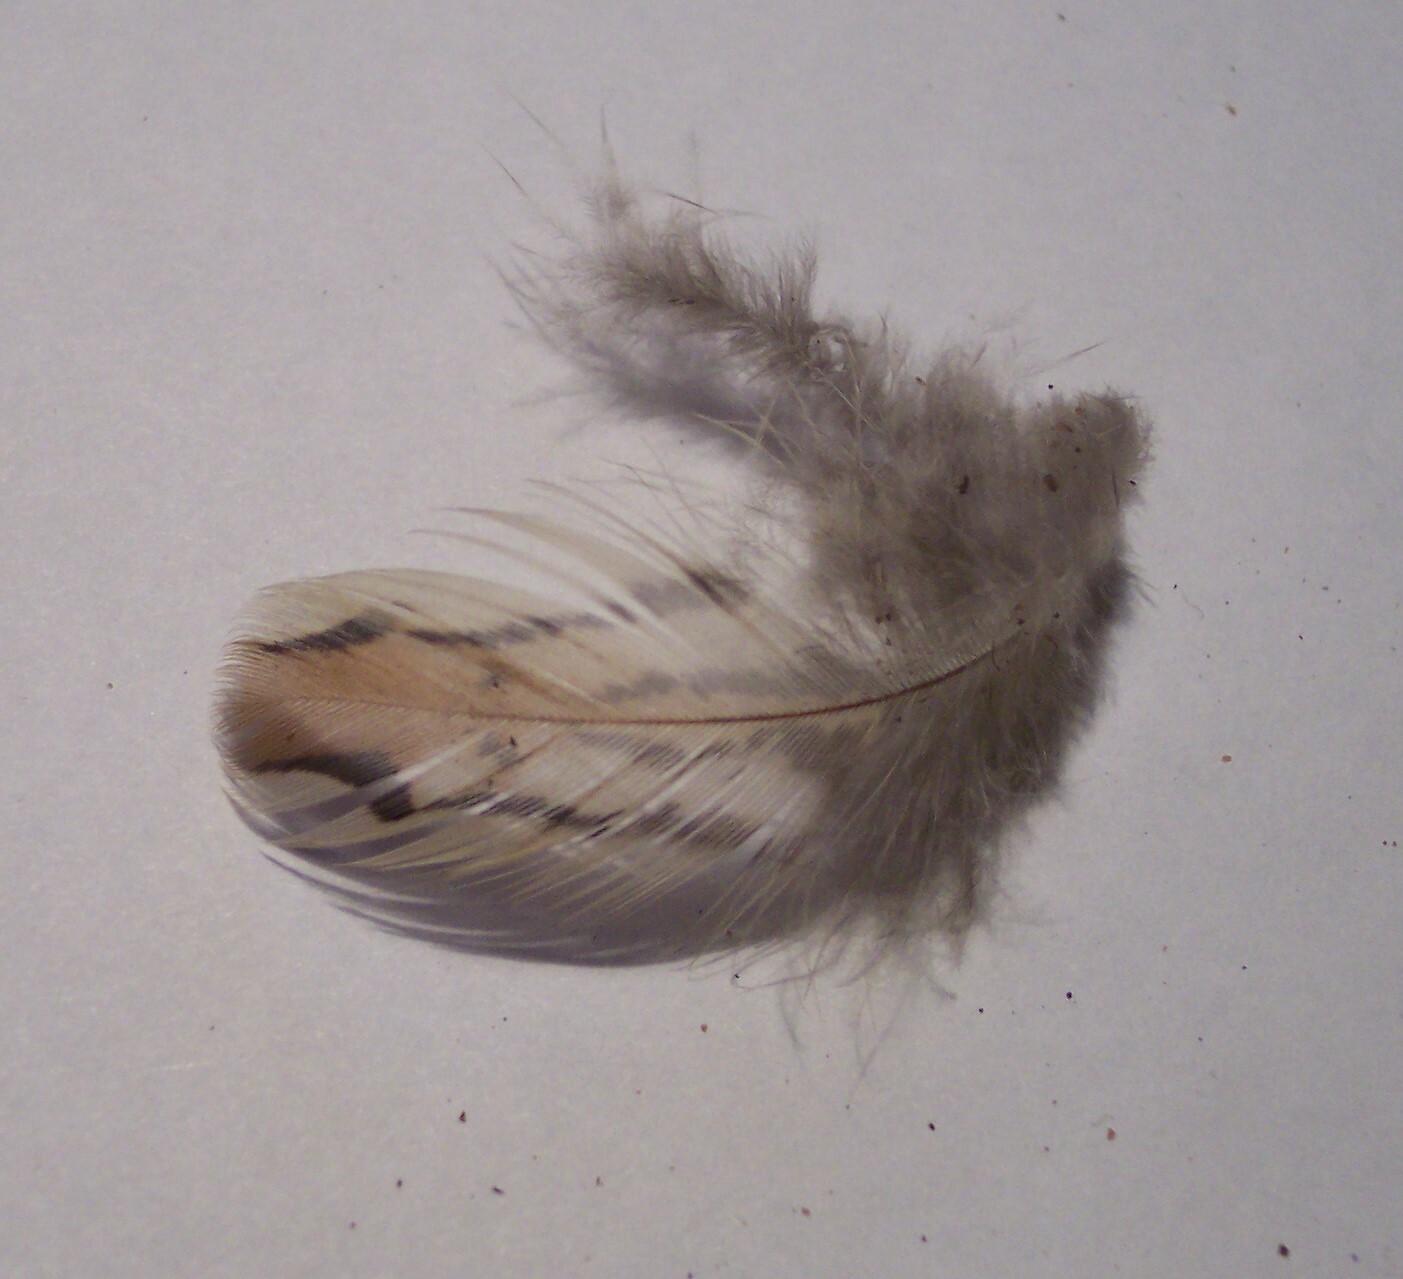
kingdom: Animalia
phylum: Chordata
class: Aves
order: Galliformes
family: Odontophoridae
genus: Colinus
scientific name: Colinus virginianus
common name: Northern bobwhite
